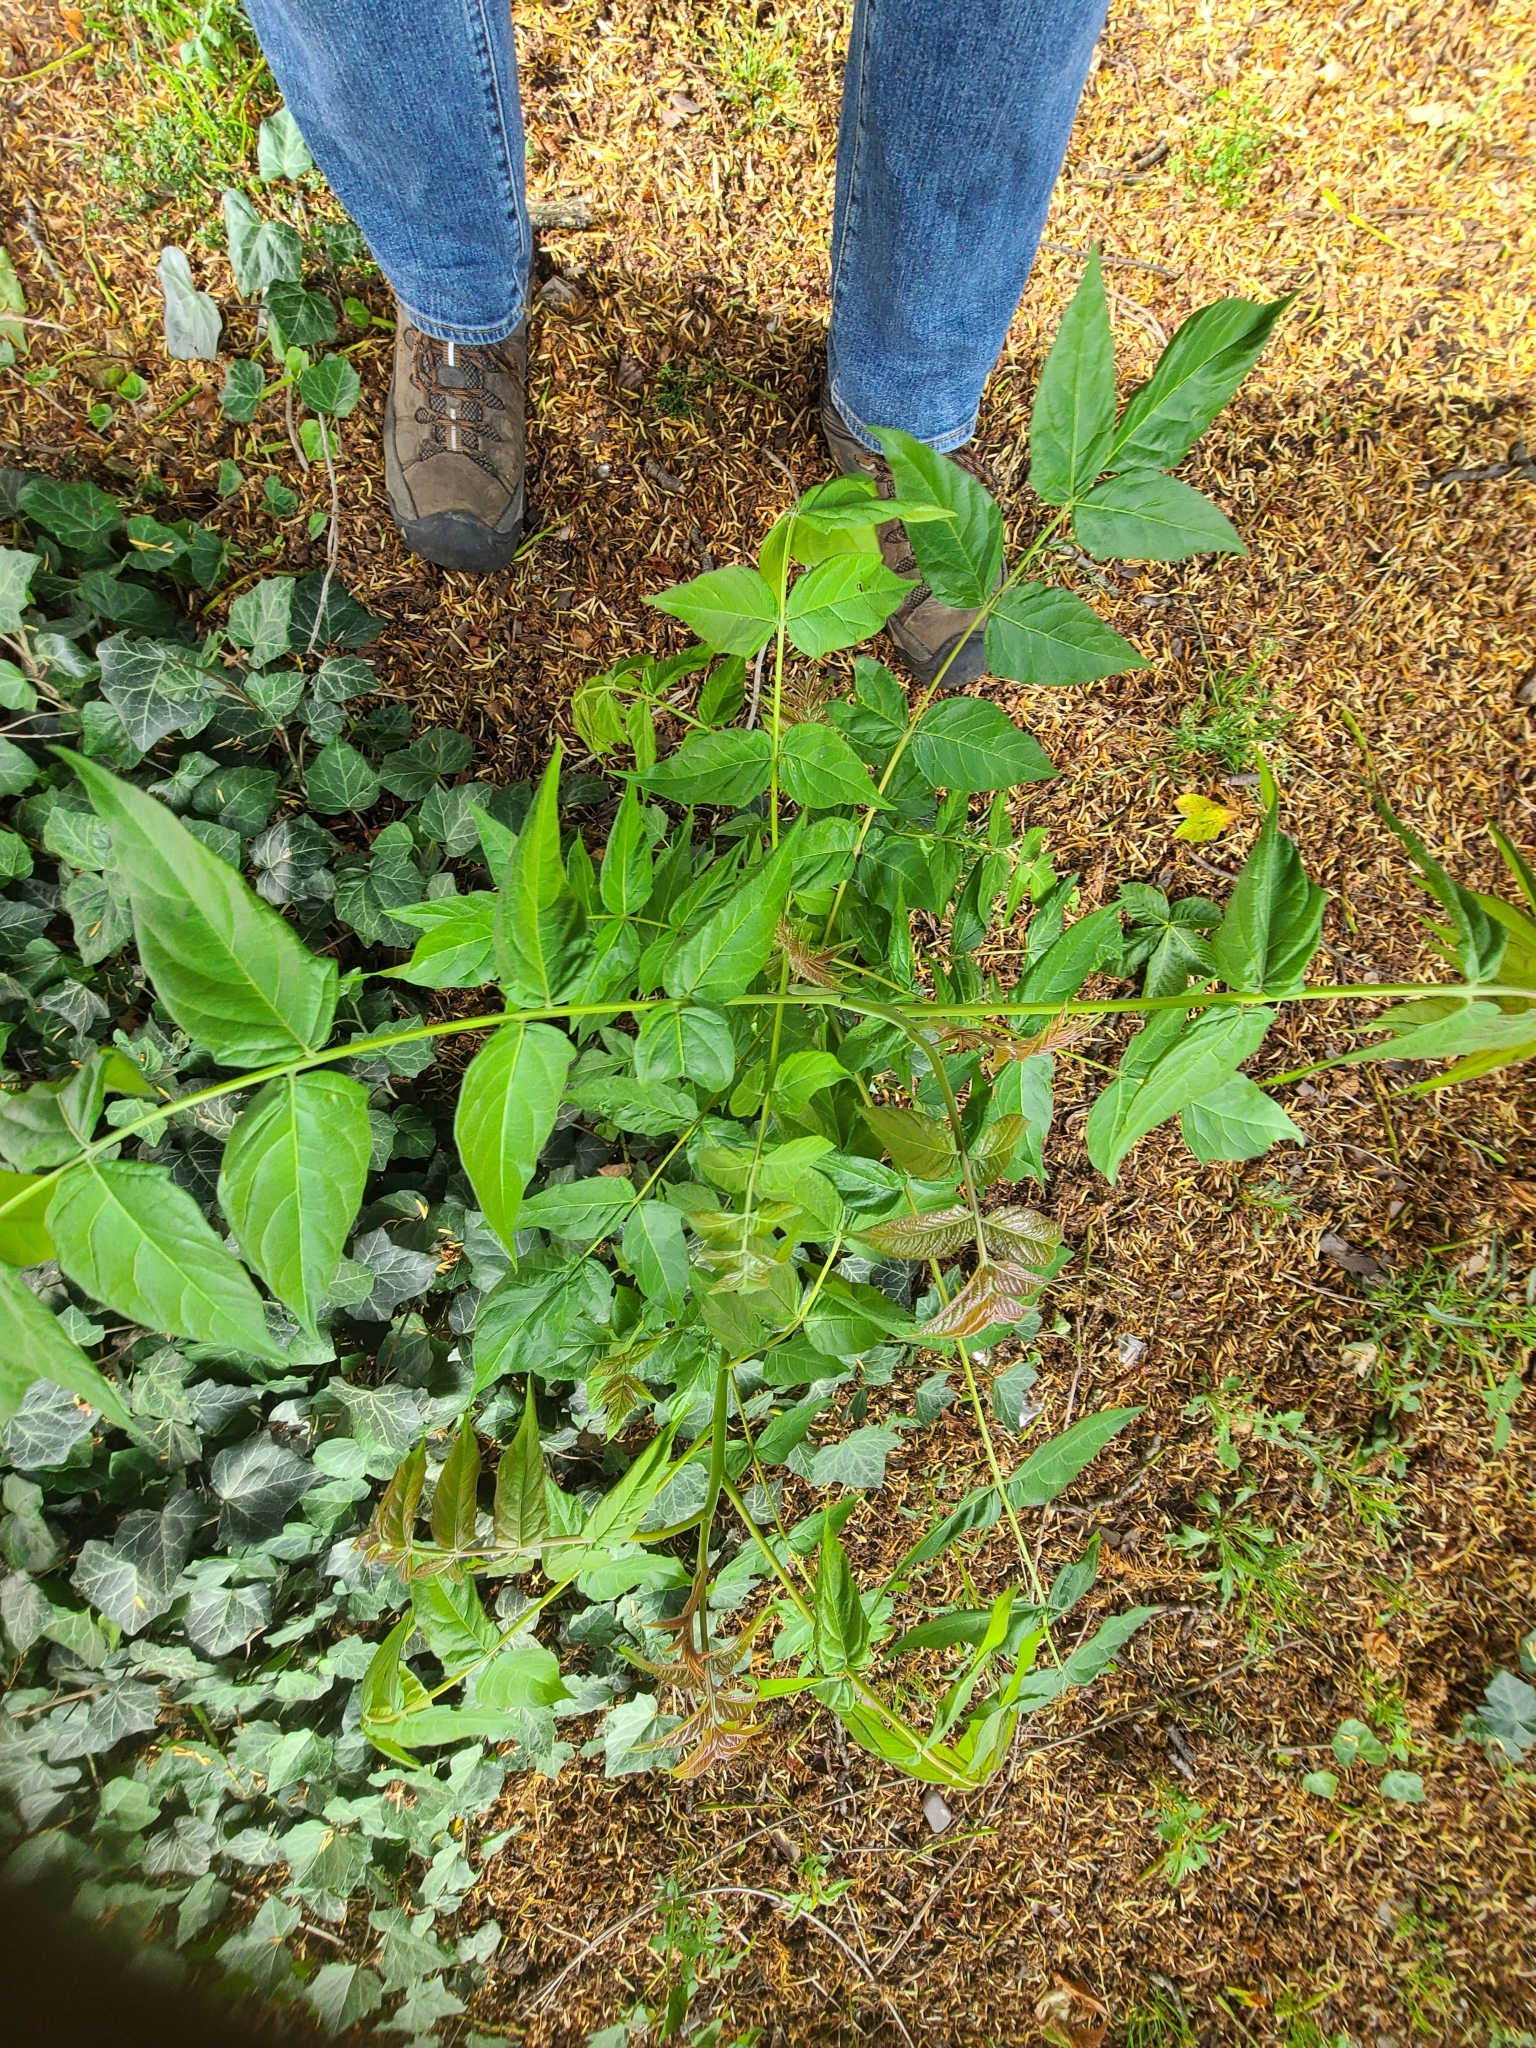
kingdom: Plantae
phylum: Tracheophyta
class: Magnoliopsida
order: Sapindales
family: Simaroubaceae
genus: Ailanthus
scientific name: Ailanthus altissima
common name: Tree-of-heaven
